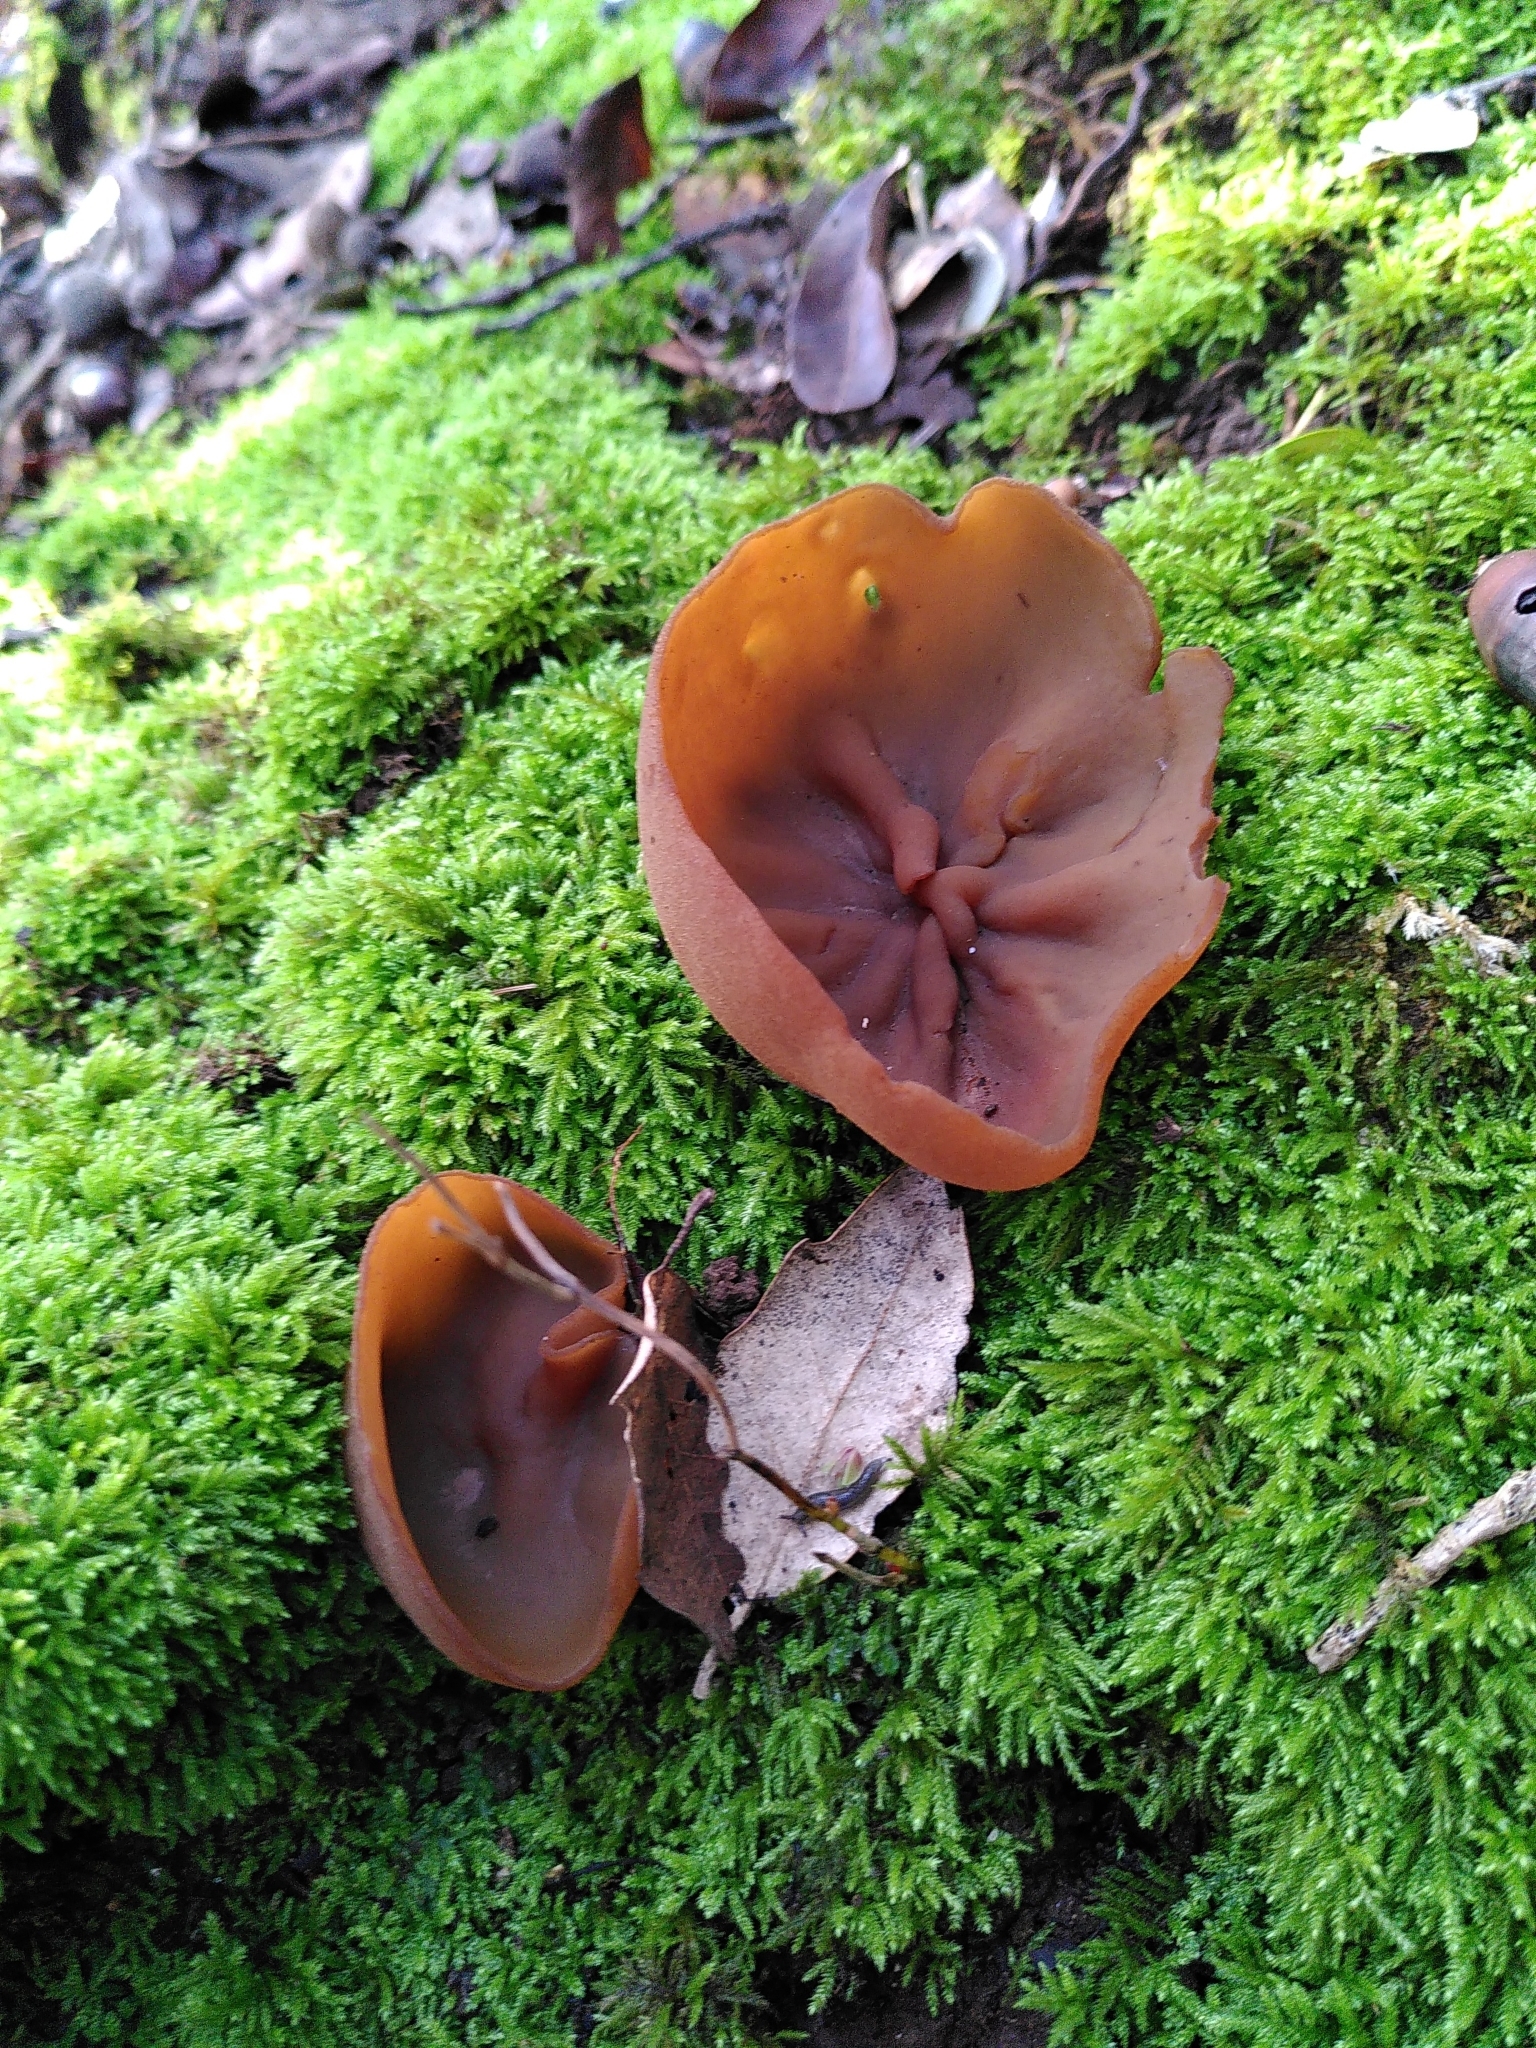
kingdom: Fungi
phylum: Basidiomycota
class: Agaricomycetes
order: Auriculariales
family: Auriculariaceae
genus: Auricularia
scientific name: Auricularia auricula-judae
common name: Jelly ear
